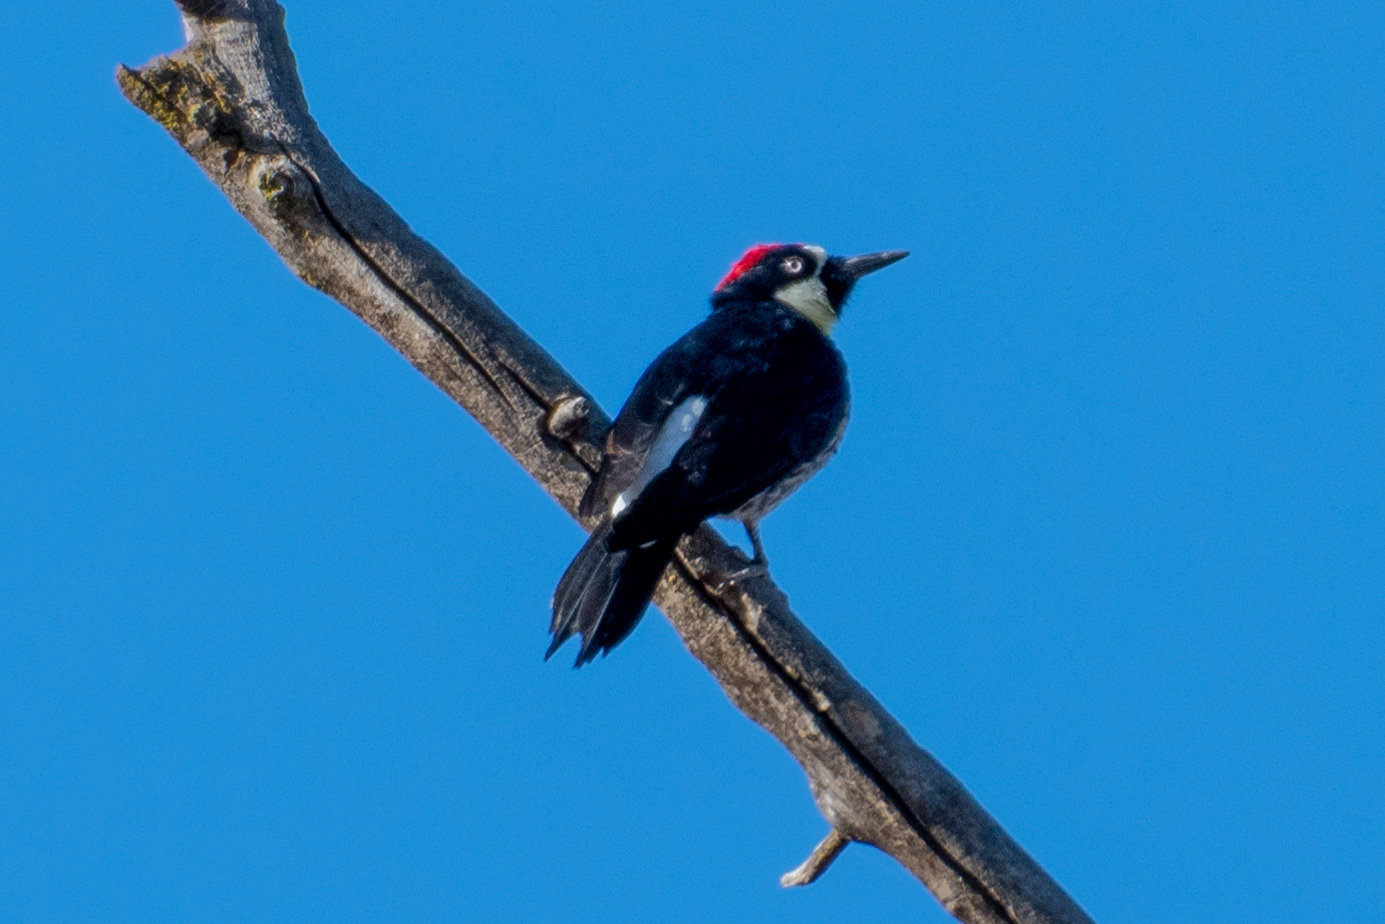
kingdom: Animalia
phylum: Chordata
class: Aves
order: Piciformes
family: Picidae
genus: Melanerpes
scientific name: Melanerpes formicivorus
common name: Acorn woodpecker
